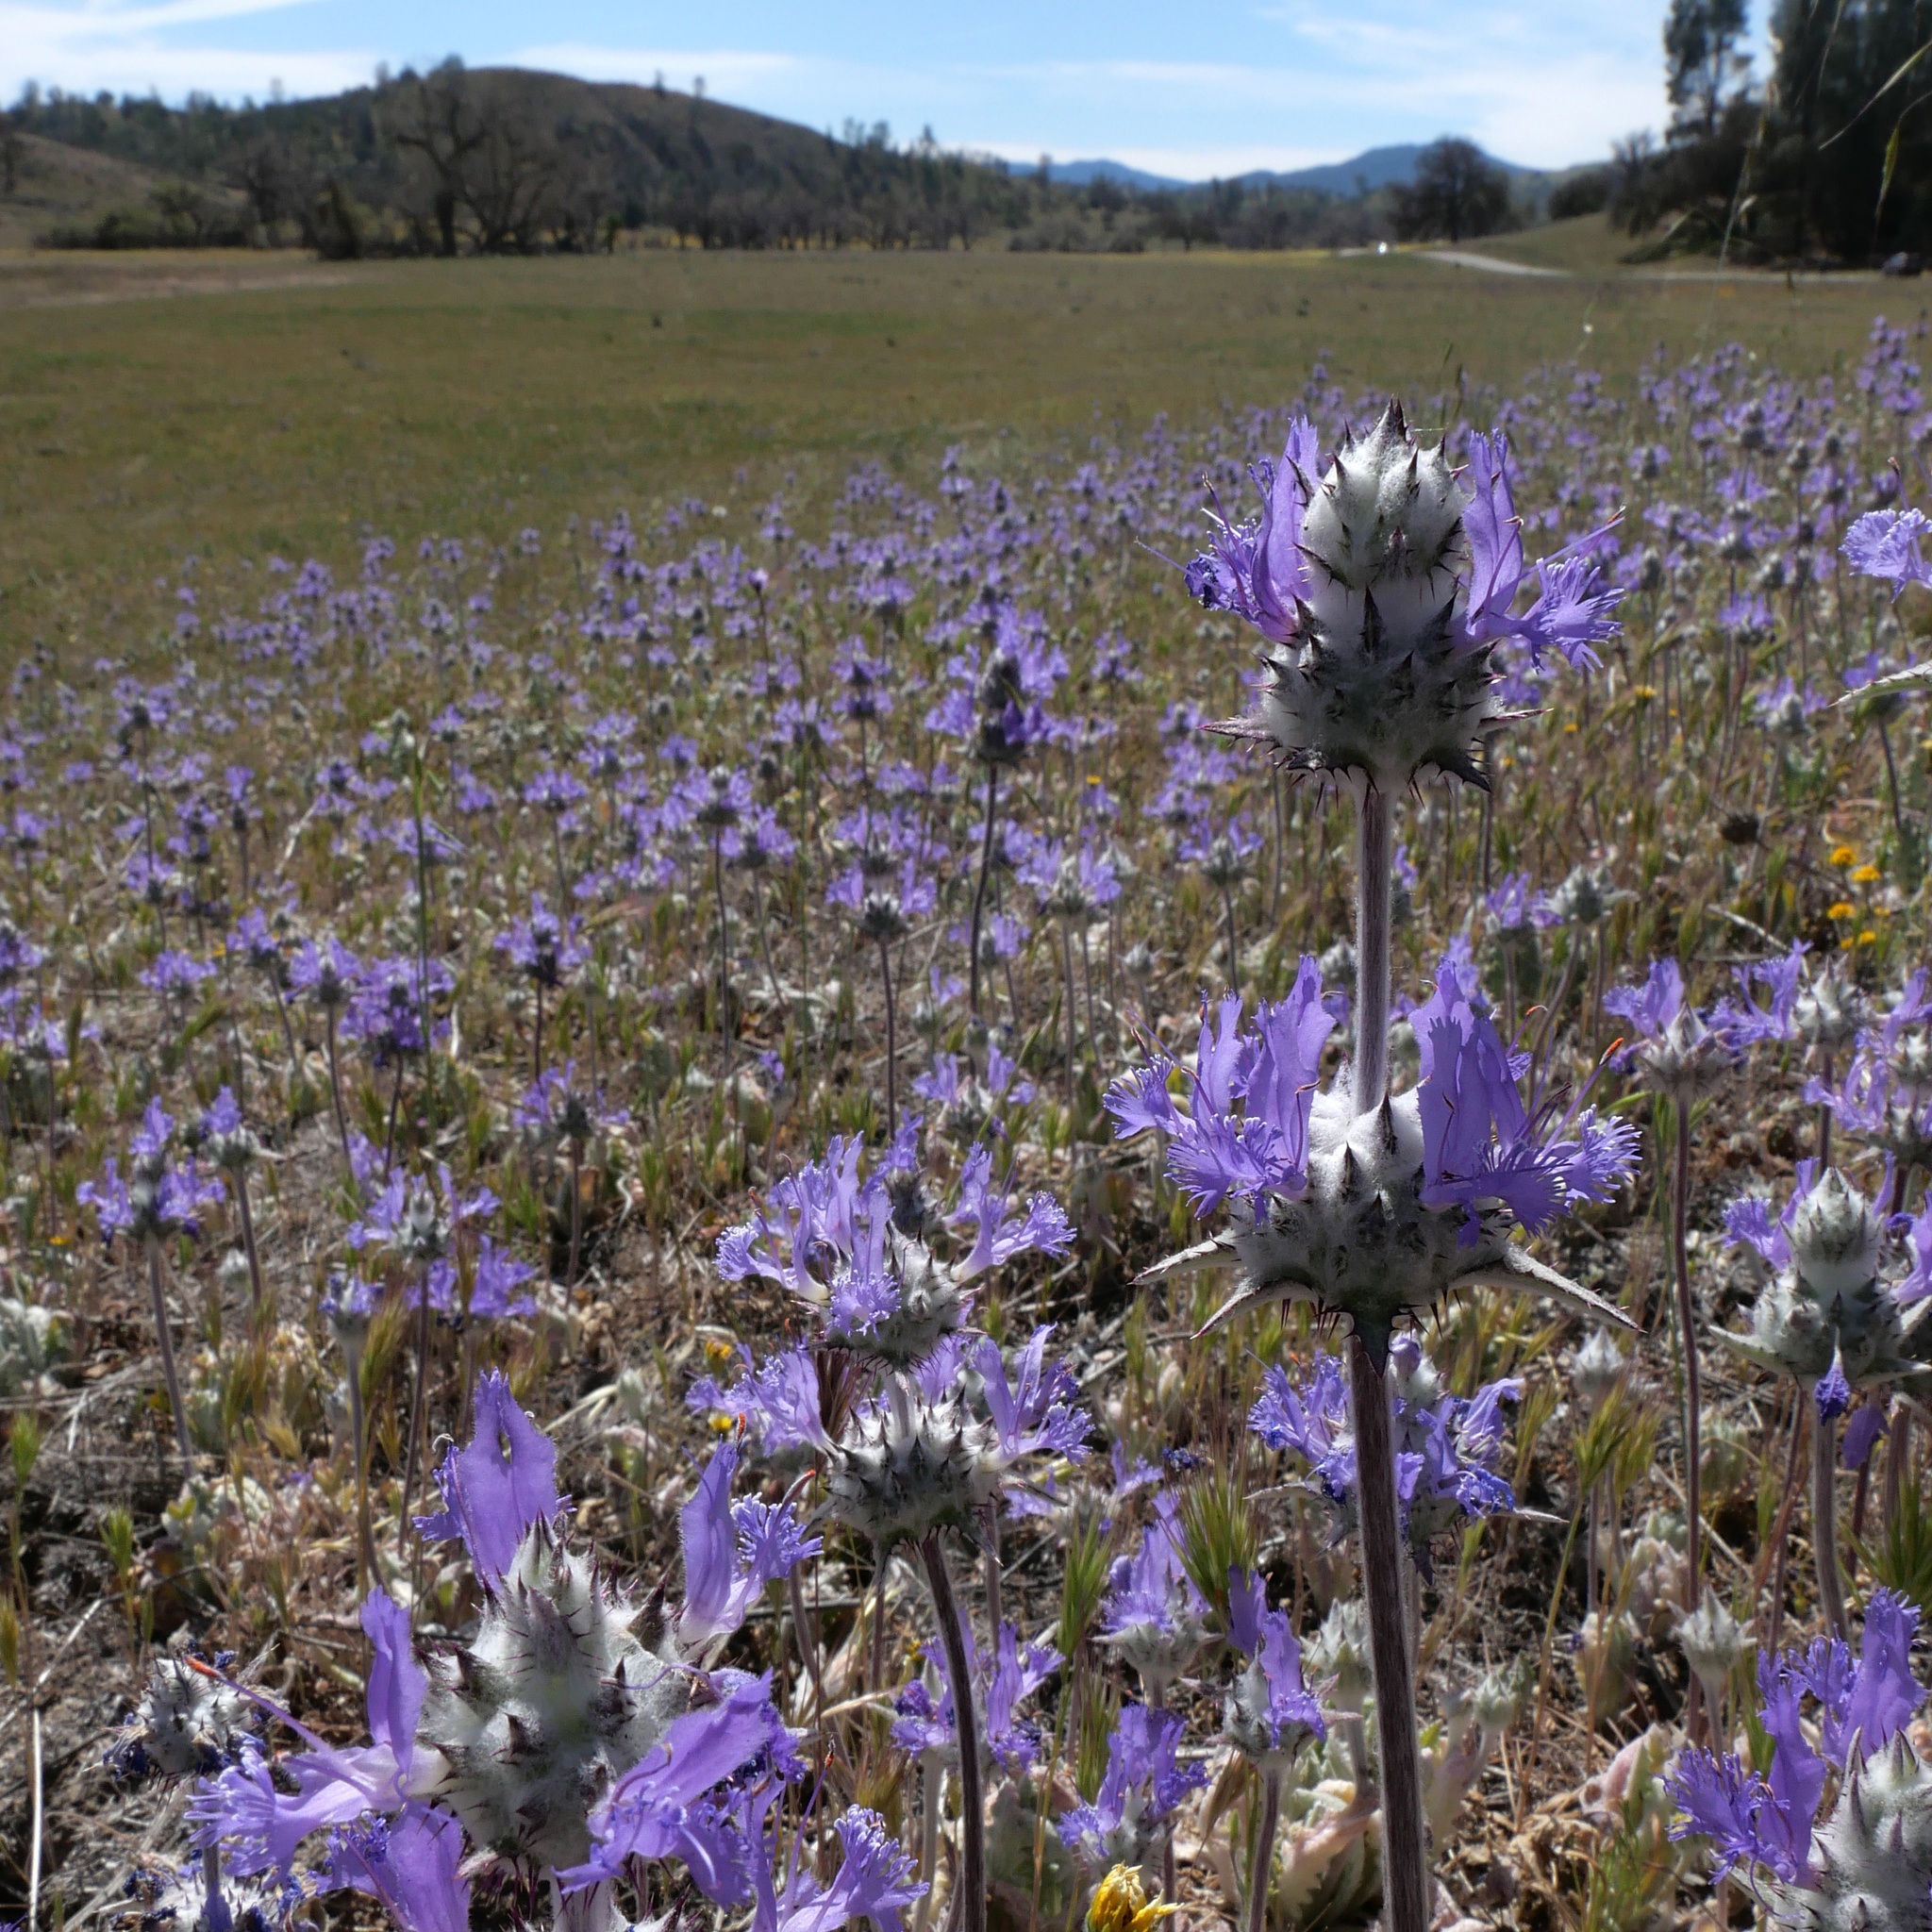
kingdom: Plantae
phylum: Tracheophyta
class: Magnoliopsida
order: Lamiales
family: Lamiaceae
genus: Salvia
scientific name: Salvia carduacea
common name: Thistle sage
